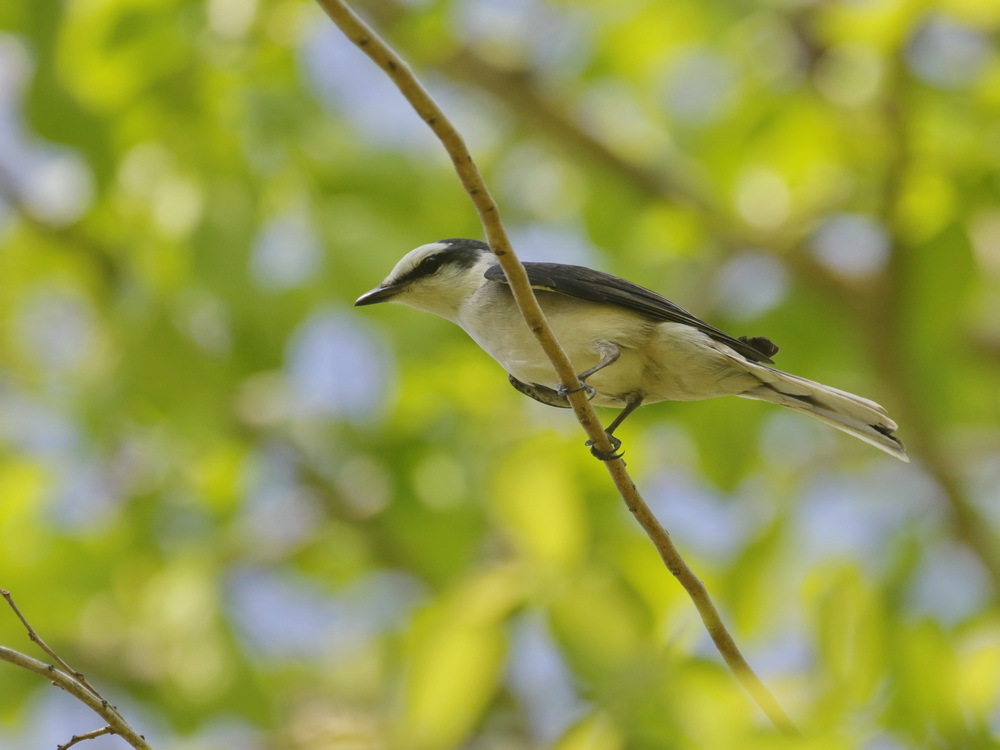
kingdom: Animalia
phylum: Chordata
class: Aves
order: Passeriformes
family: Campephagidae
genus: Pericrocotus
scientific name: Pericrocotus cantonensis
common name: Swinhoe's minivet
